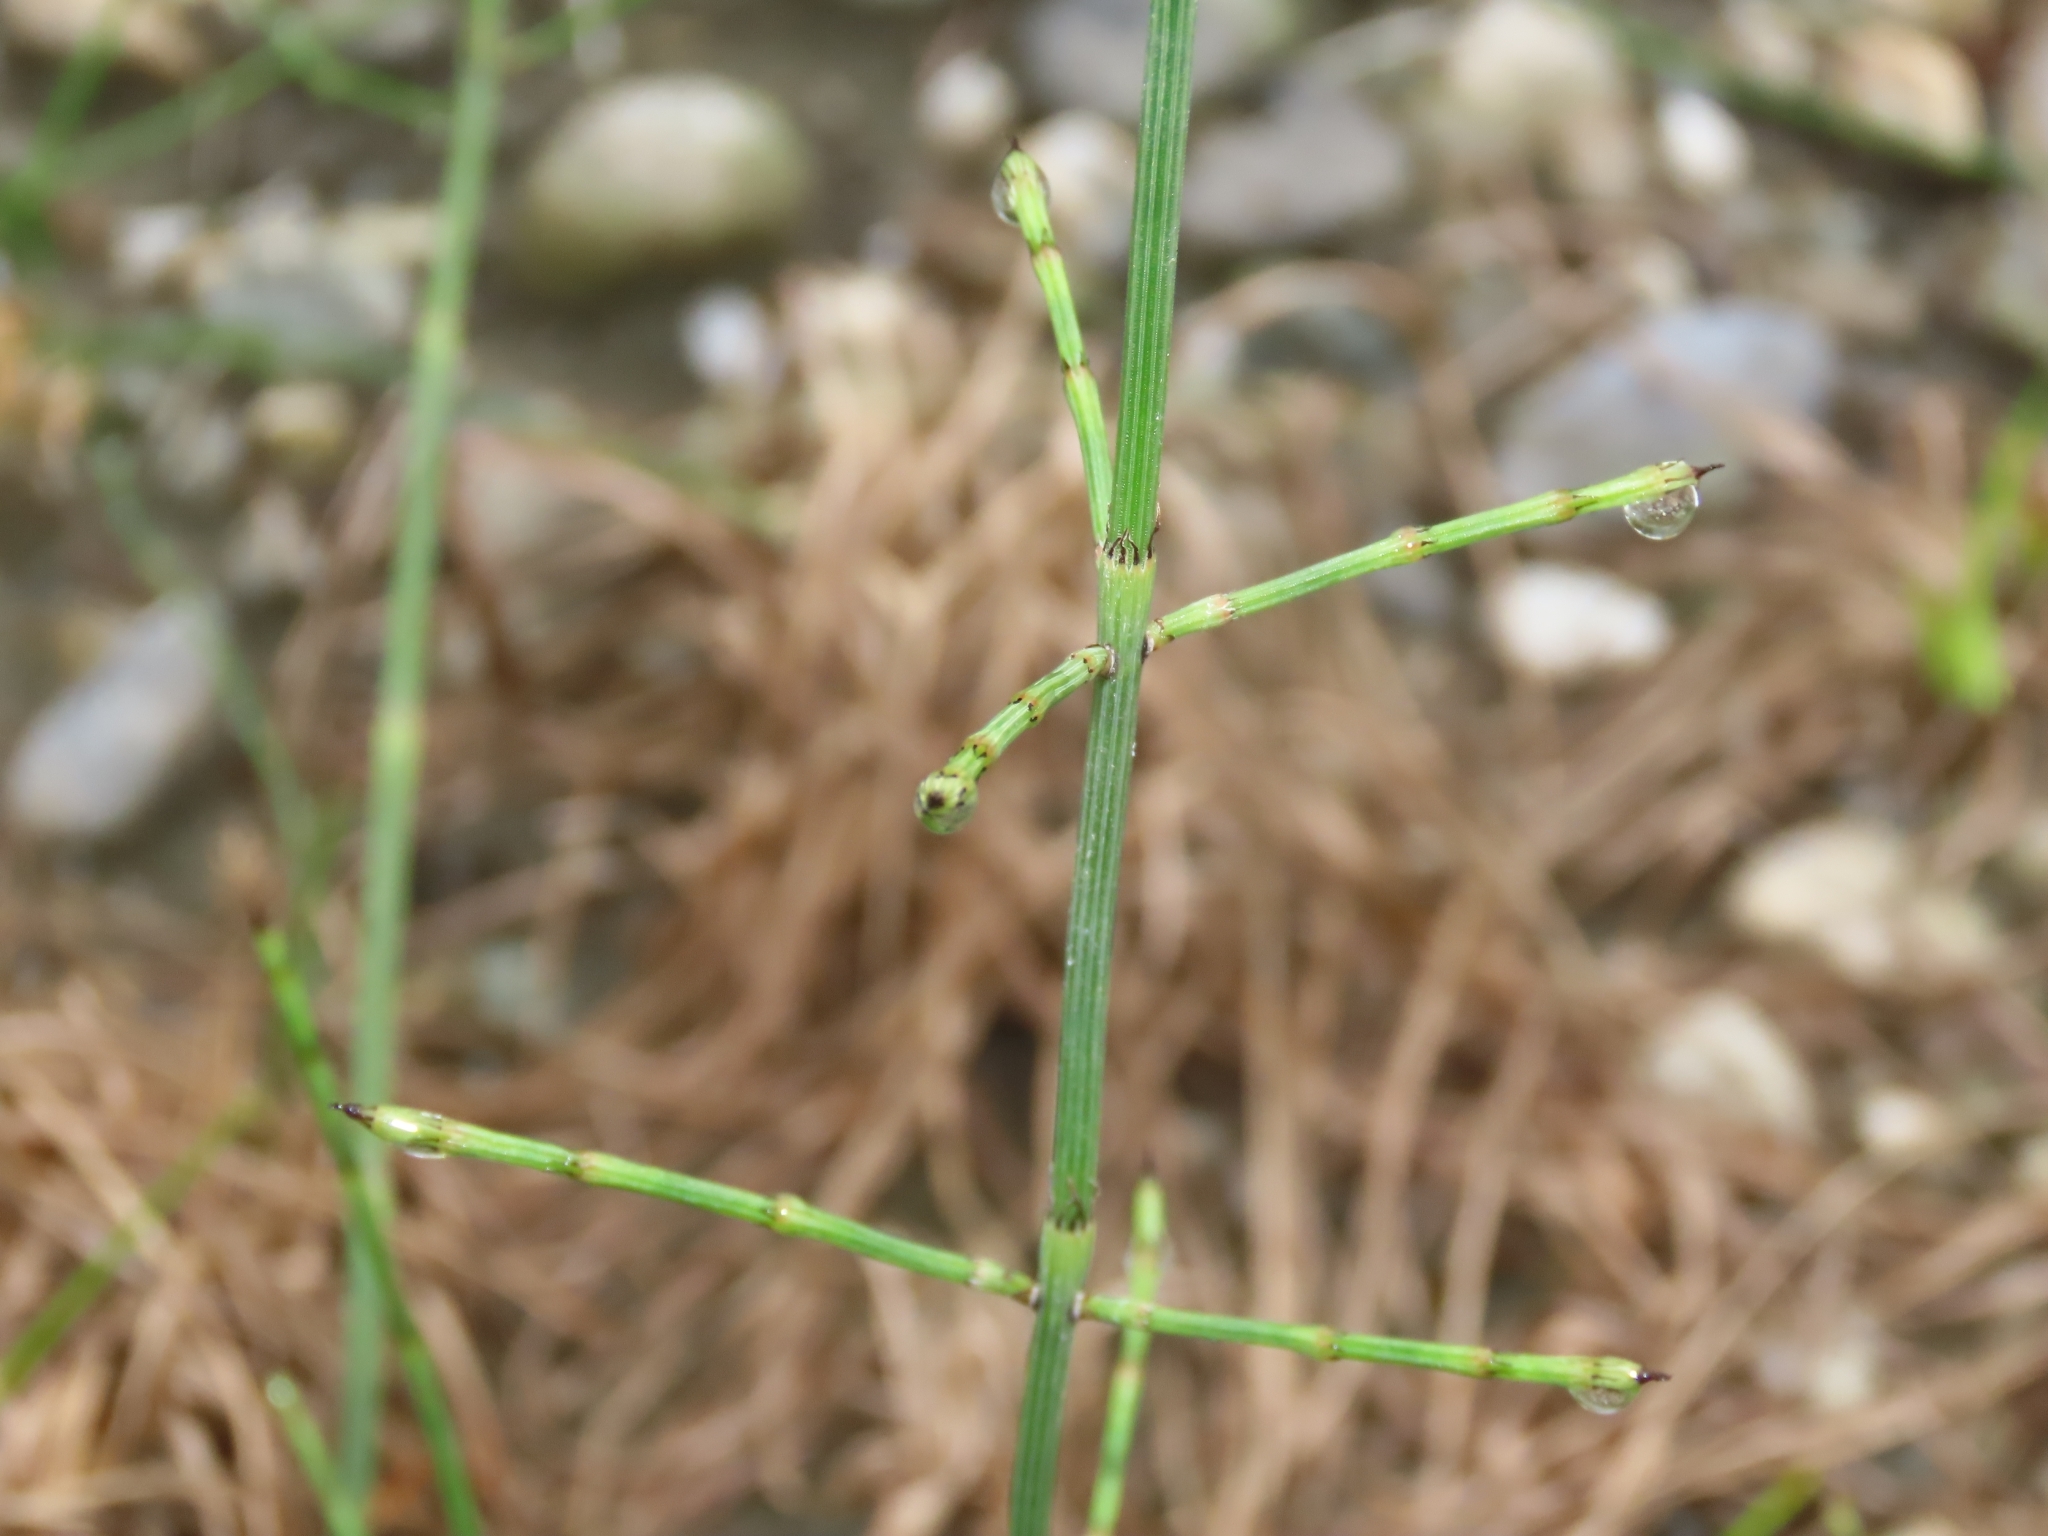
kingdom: Plantae
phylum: Tracheophyta
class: Polypodiopsida
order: Equisetales
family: Equisetaceae
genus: Equisetum
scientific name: Equisetum ramosissimum
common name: Branched horsetail
